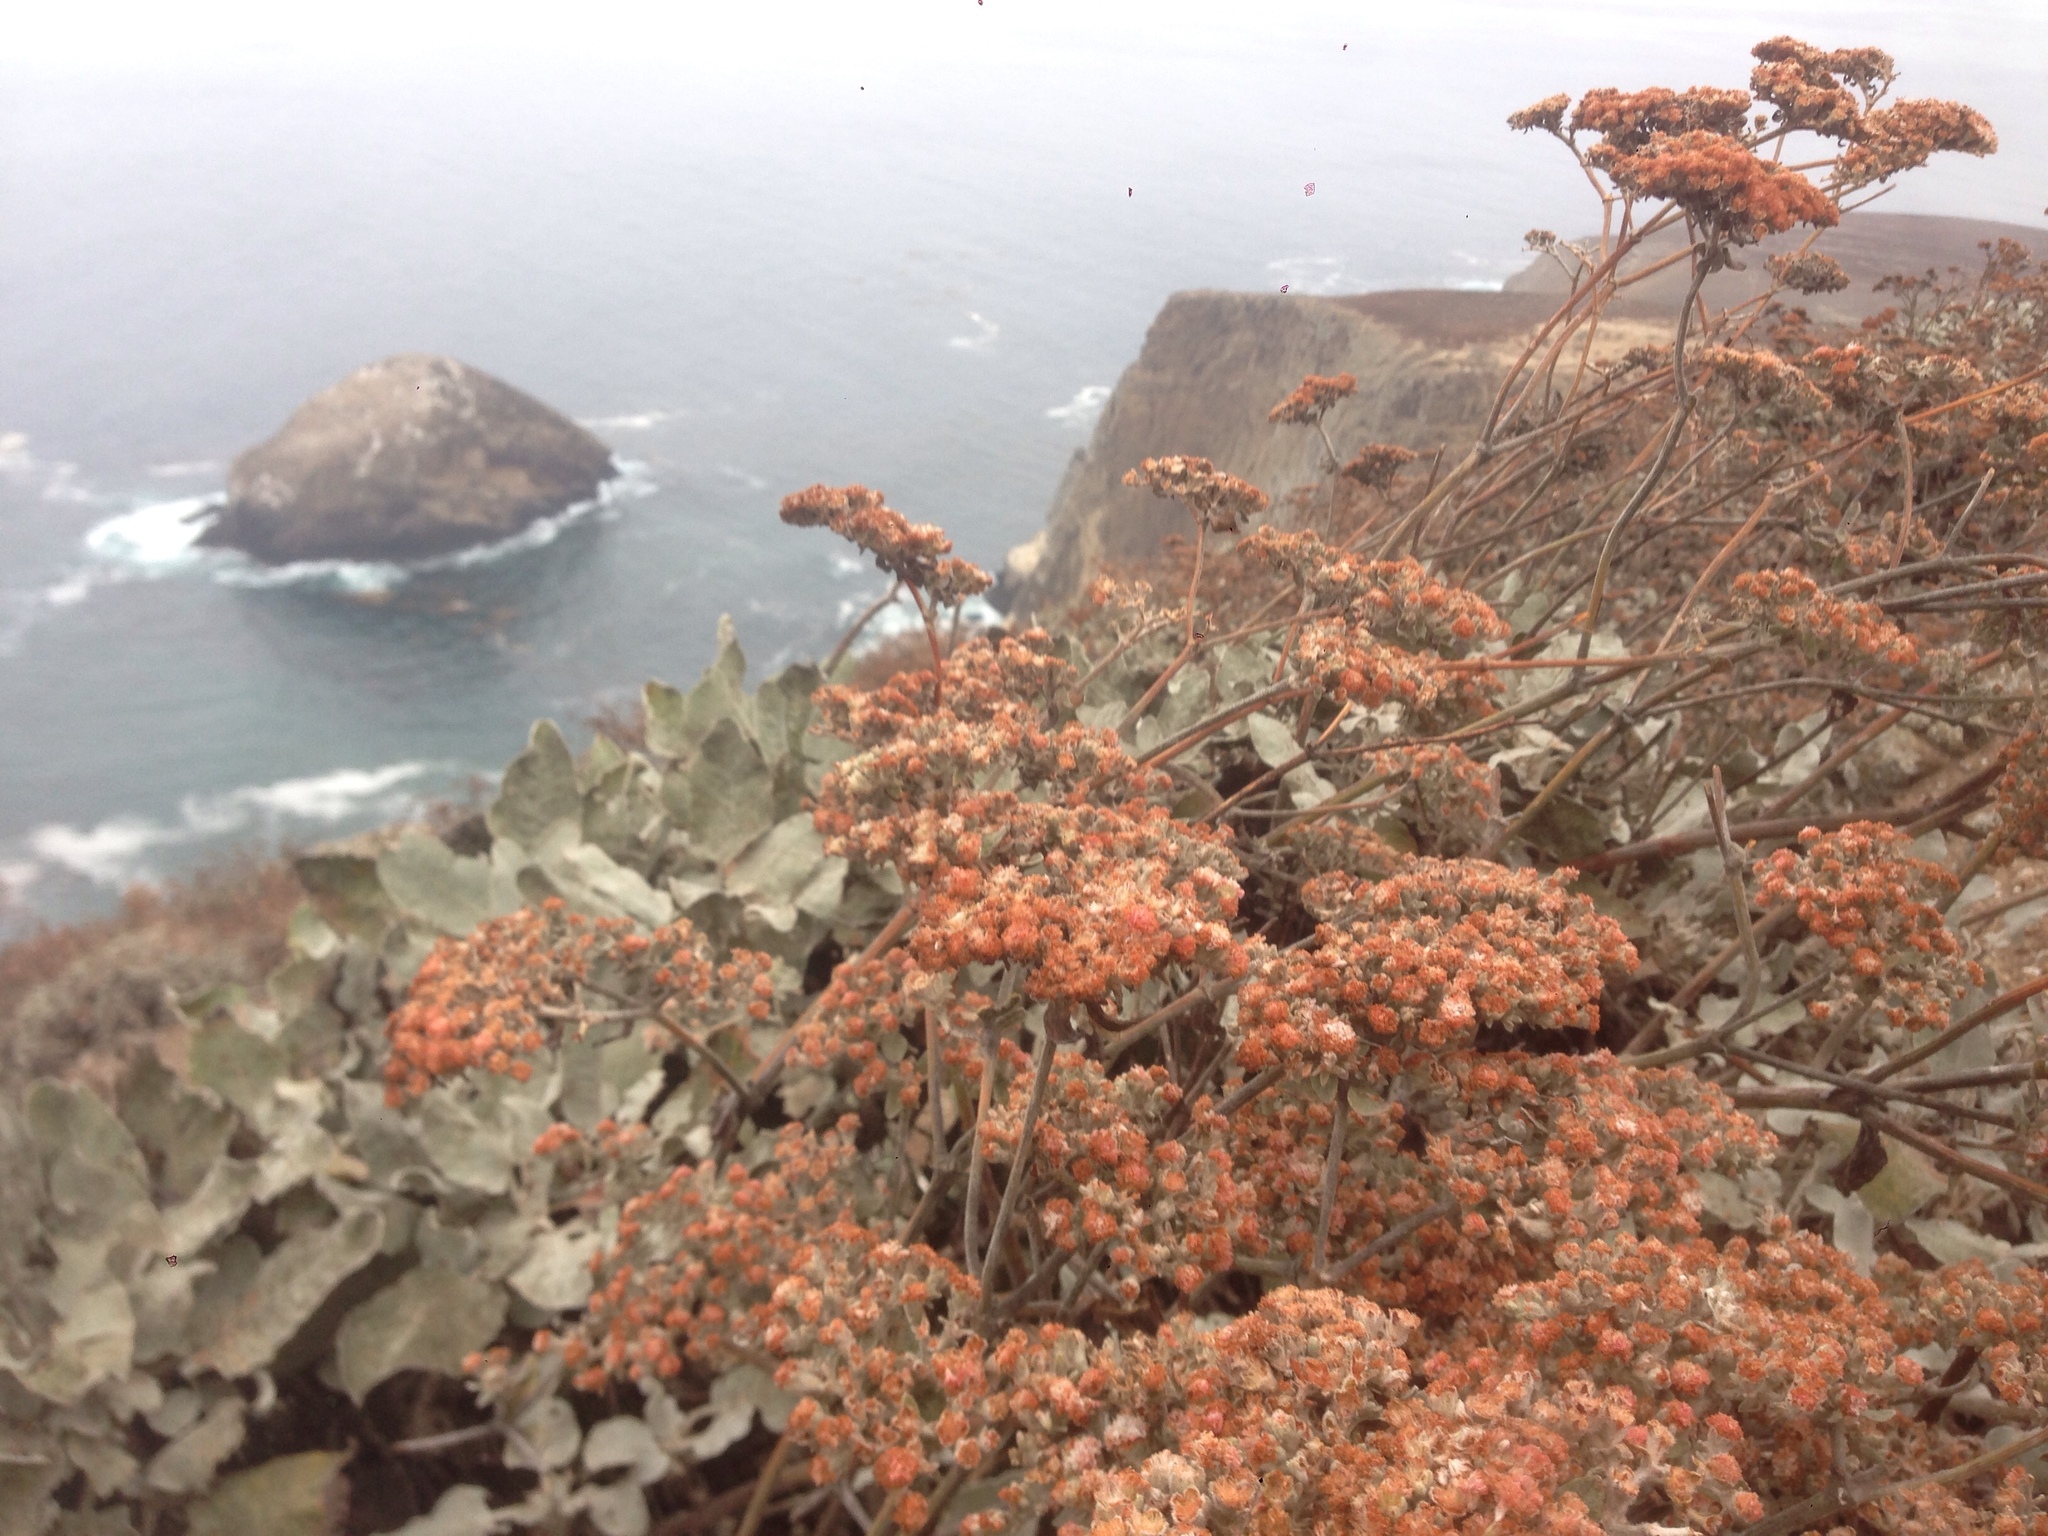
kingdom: Plantae
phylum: Tracheophyta
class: Magnoliopsida
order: Caryophyllales
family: Polygonaceae
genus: Eriogonum
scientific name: Eriogonum giganteum
